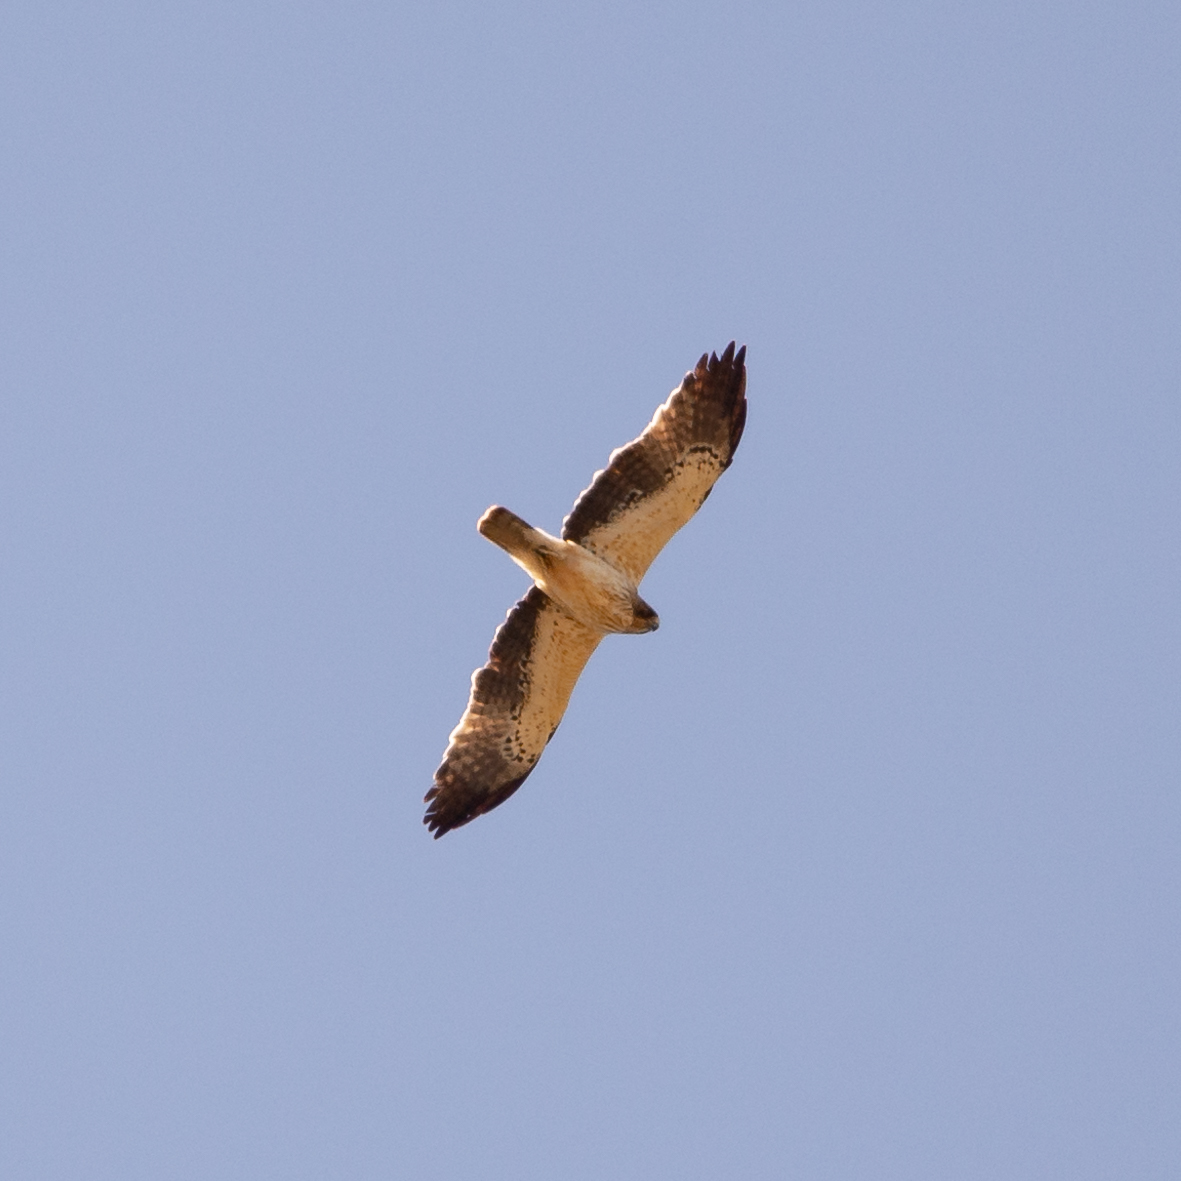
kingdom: Animalia
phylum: Chordata
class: Aves
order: Accipitriformes
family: Accipitridae
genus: Hieraaetus
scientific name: Hieraaetus pennatus
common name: Booted eagle
